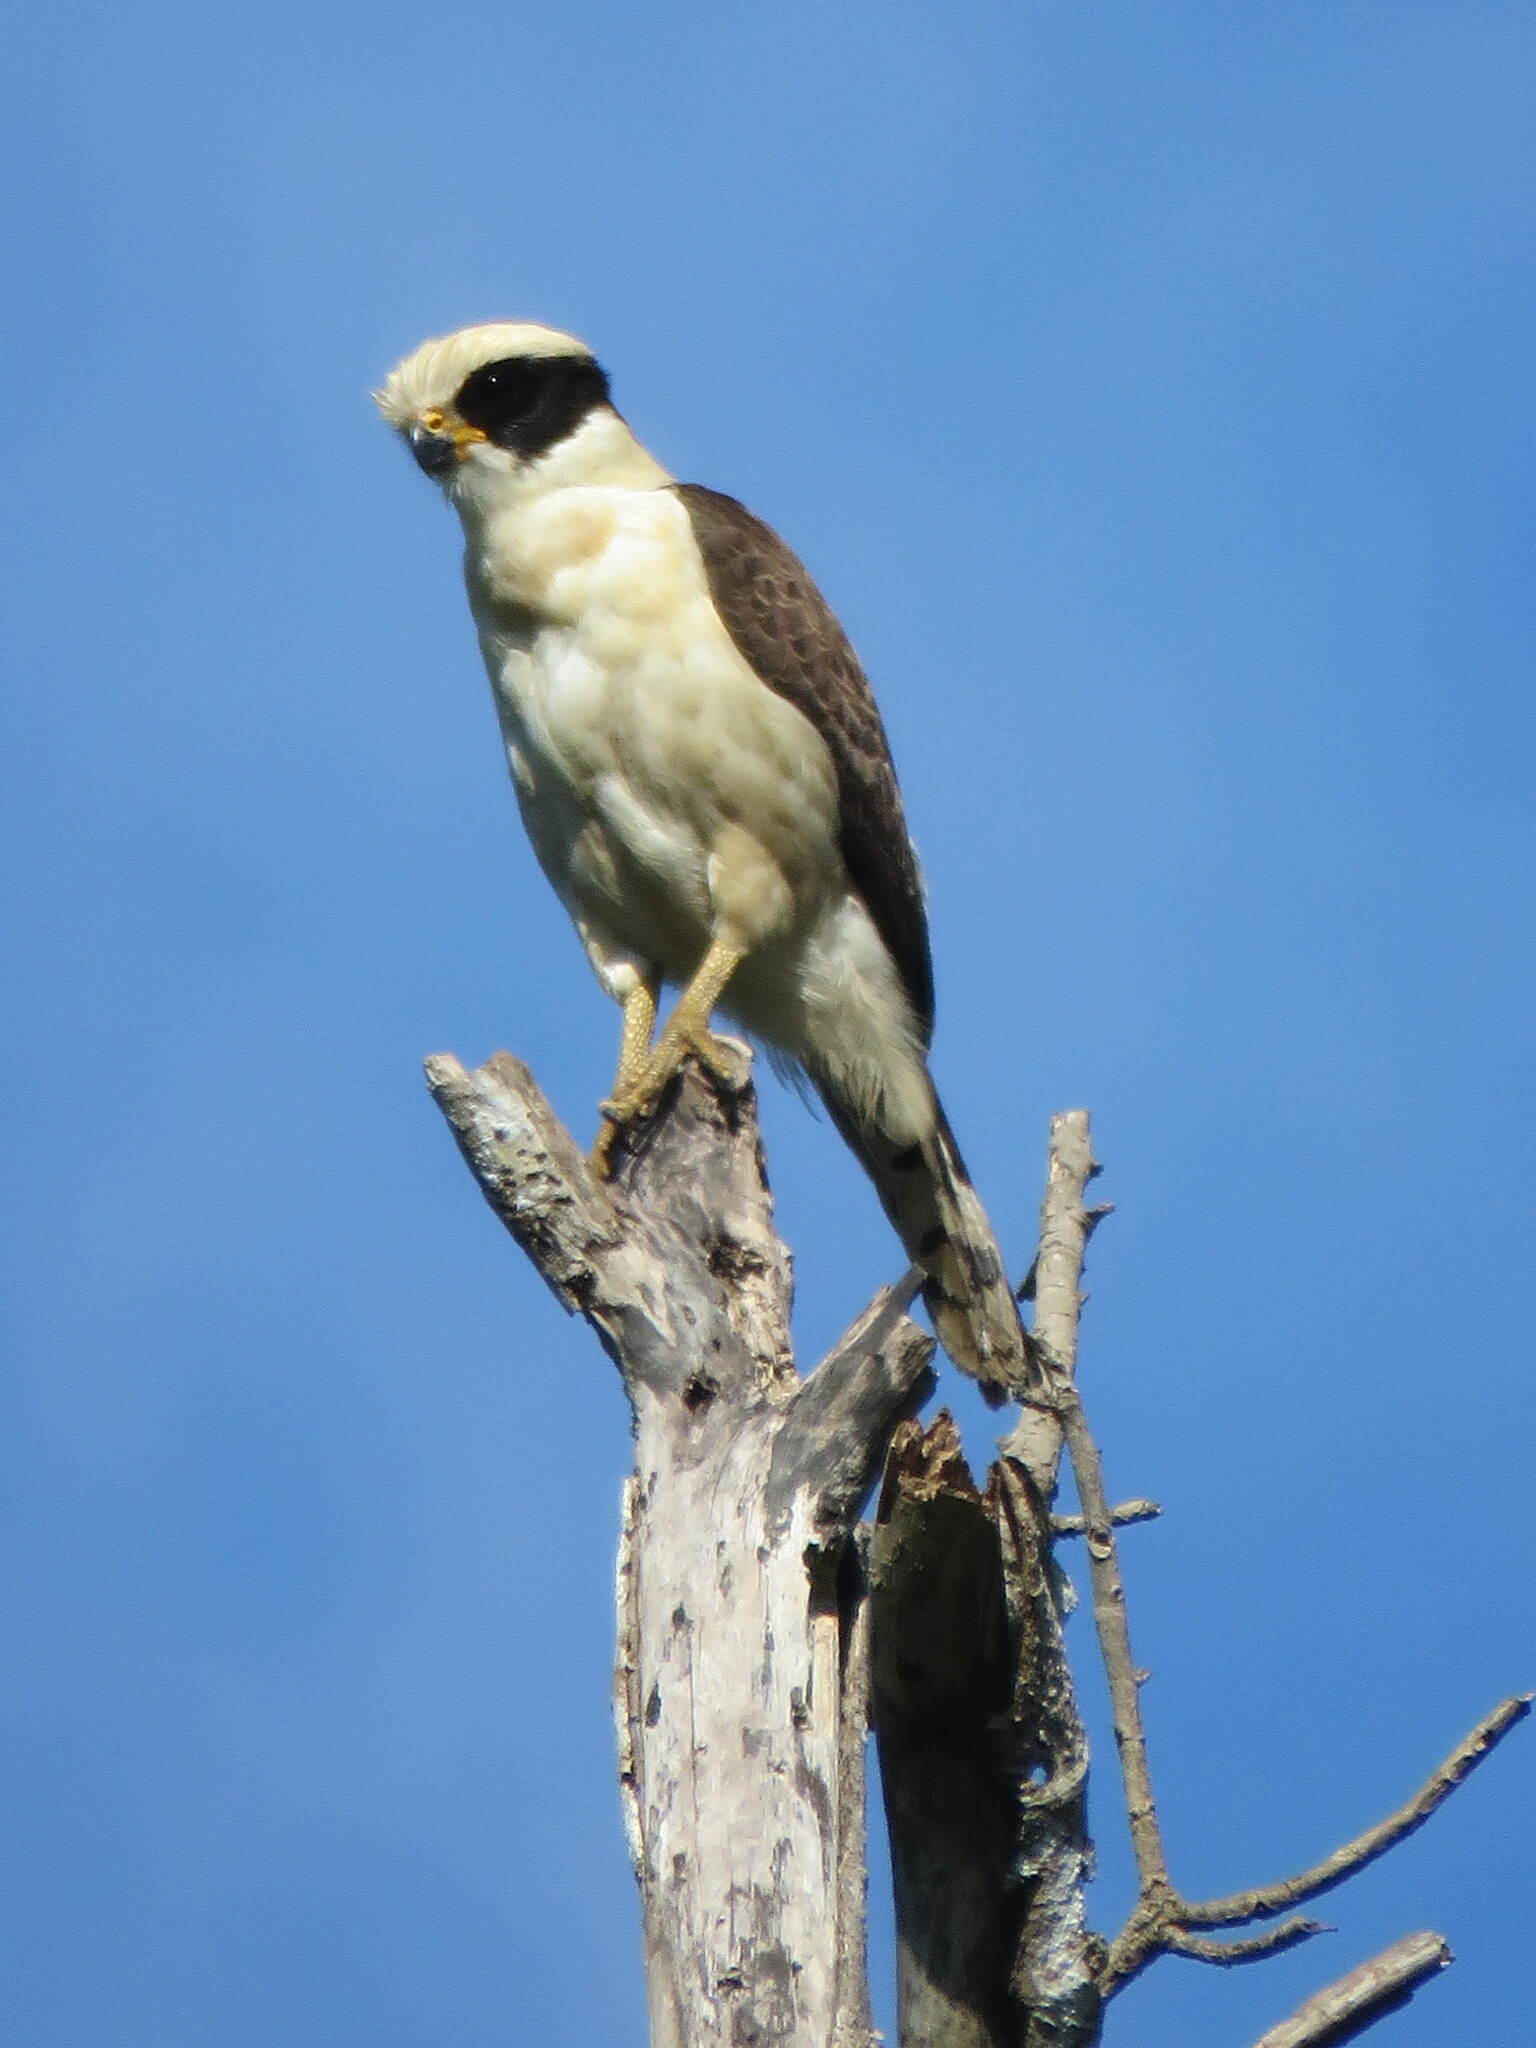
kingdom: Animalia
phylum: Chordata
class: Aves
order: Falconiformes
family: Falconidae
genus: Herpetotheres
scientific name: Herpetotheres cachinnans
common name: Laughing falcon
